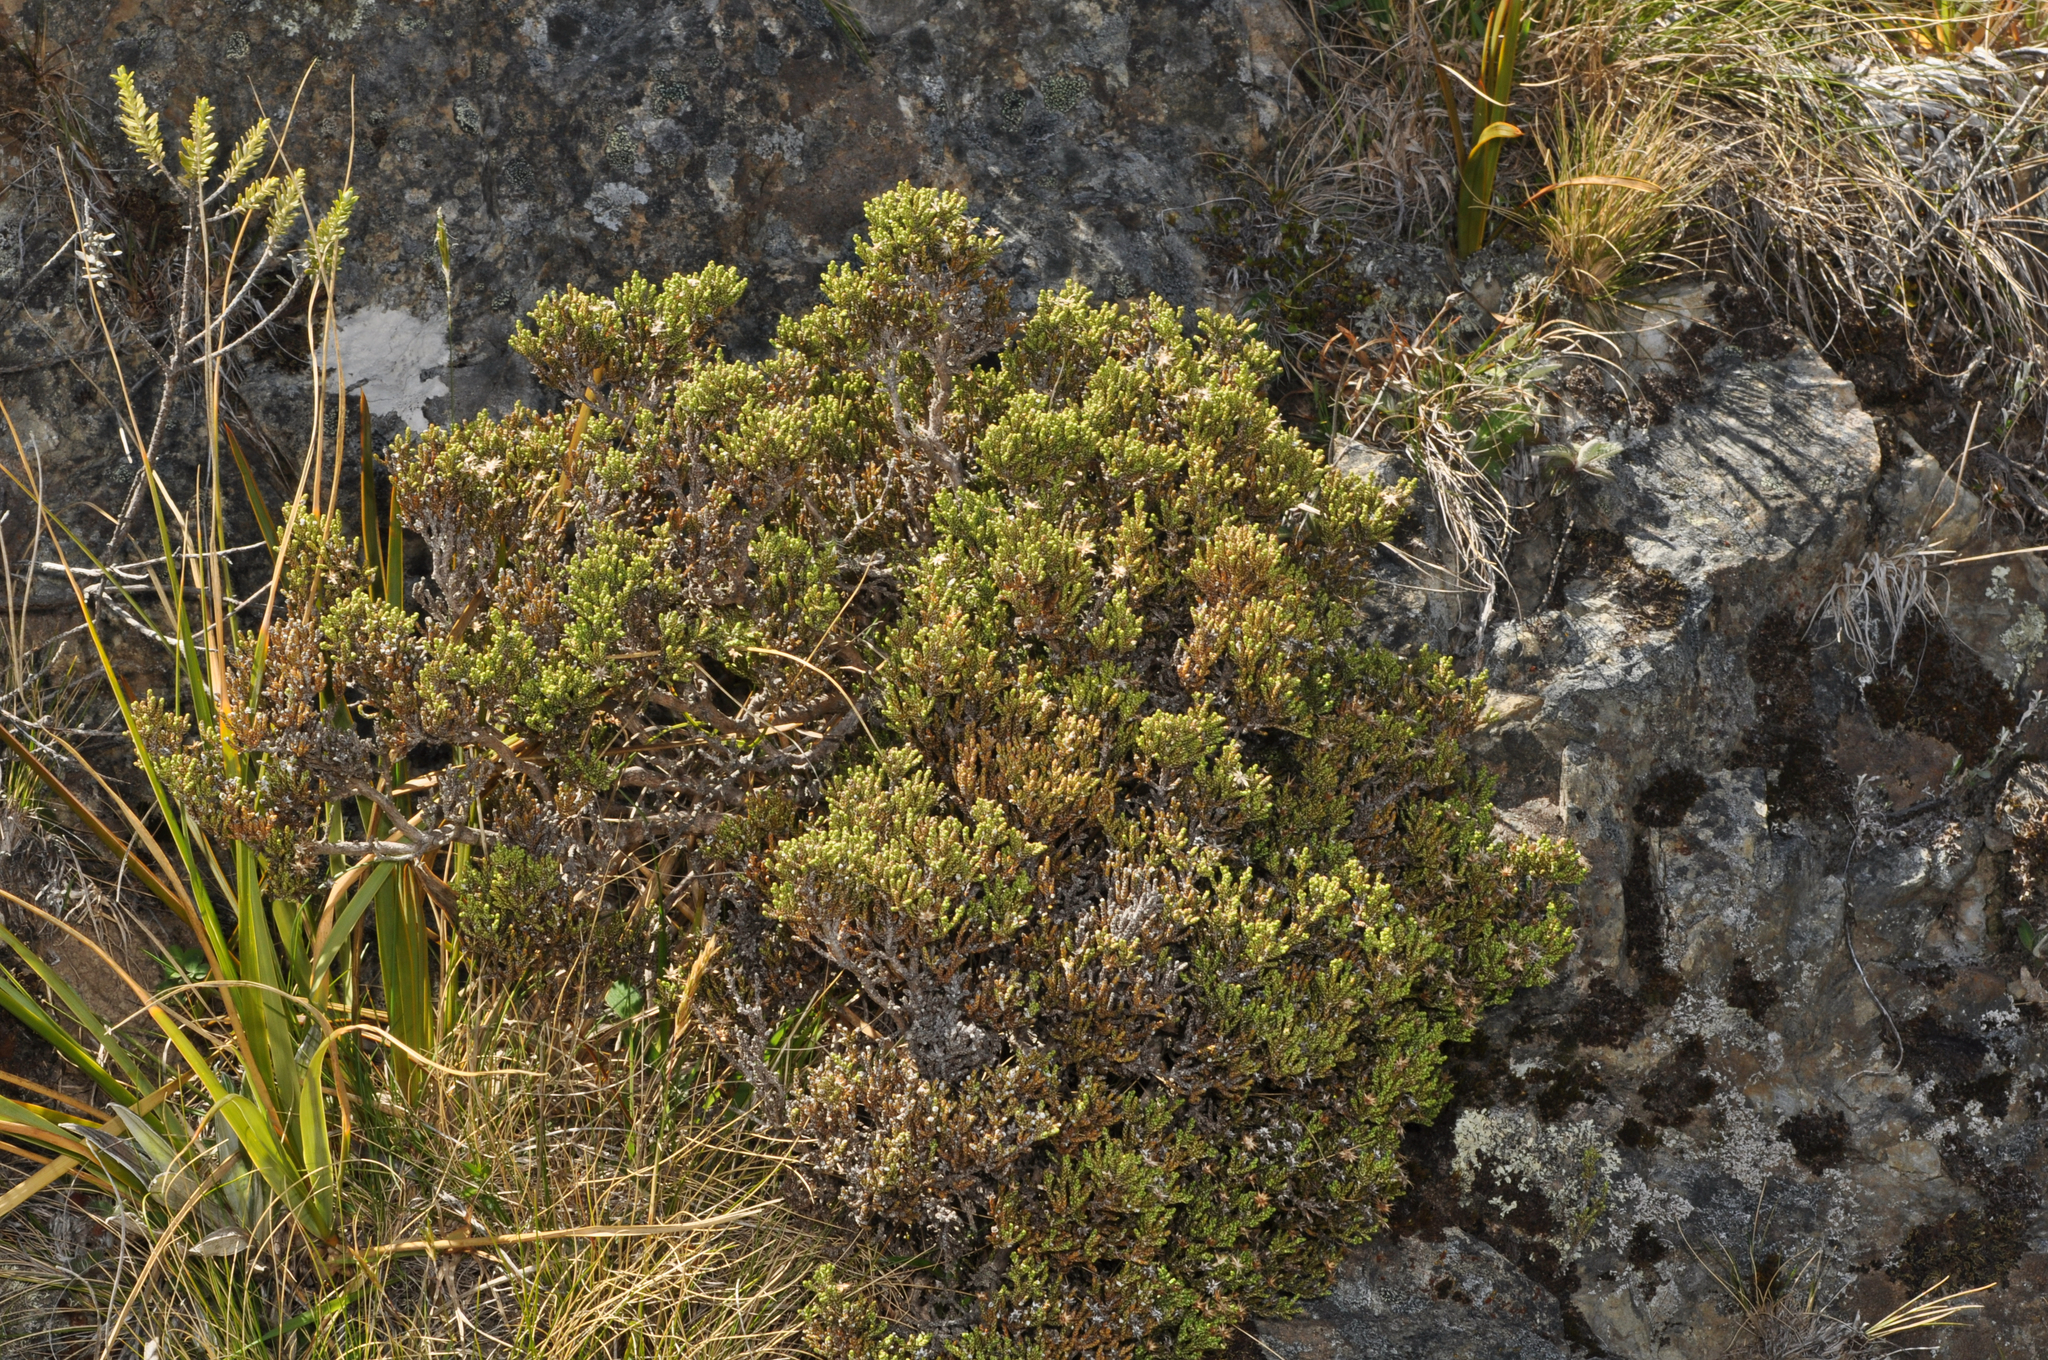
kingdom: Plantae
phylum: Tracheophyta
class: Magnoliopsida
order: Asterales
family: Asteraceae
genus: Ozothamnus
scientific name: Ozothamnus parvifolius
